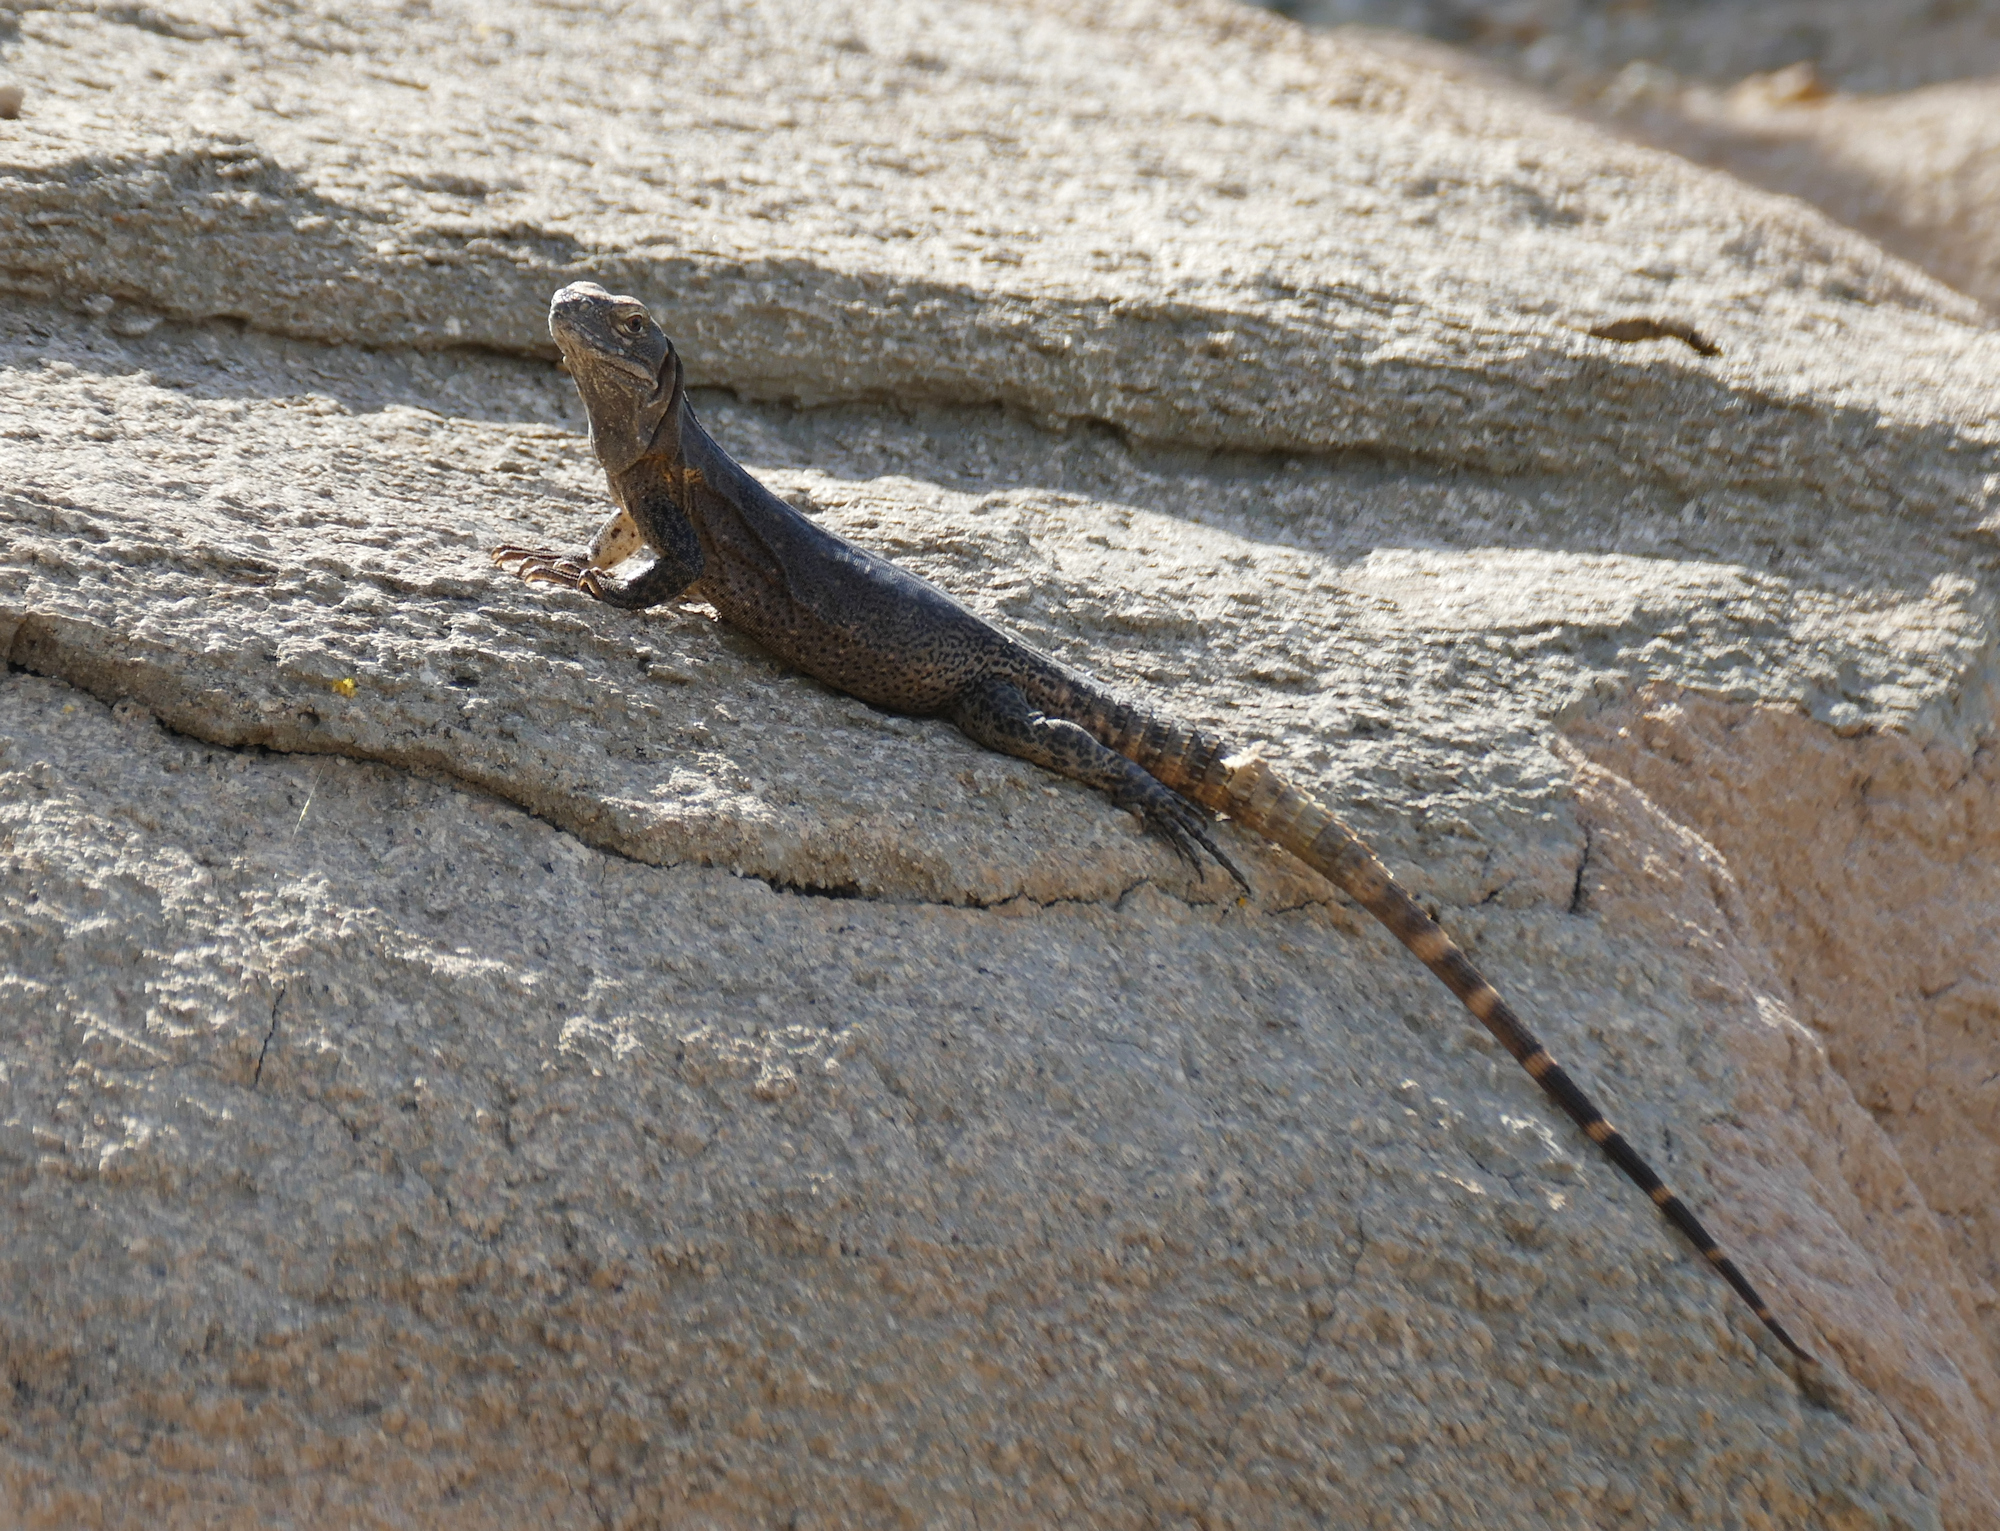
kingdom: Animalia
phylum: Chordata
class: Squamata
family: Iguanidae
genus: Ctenosaura
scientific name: Ctenosaura
